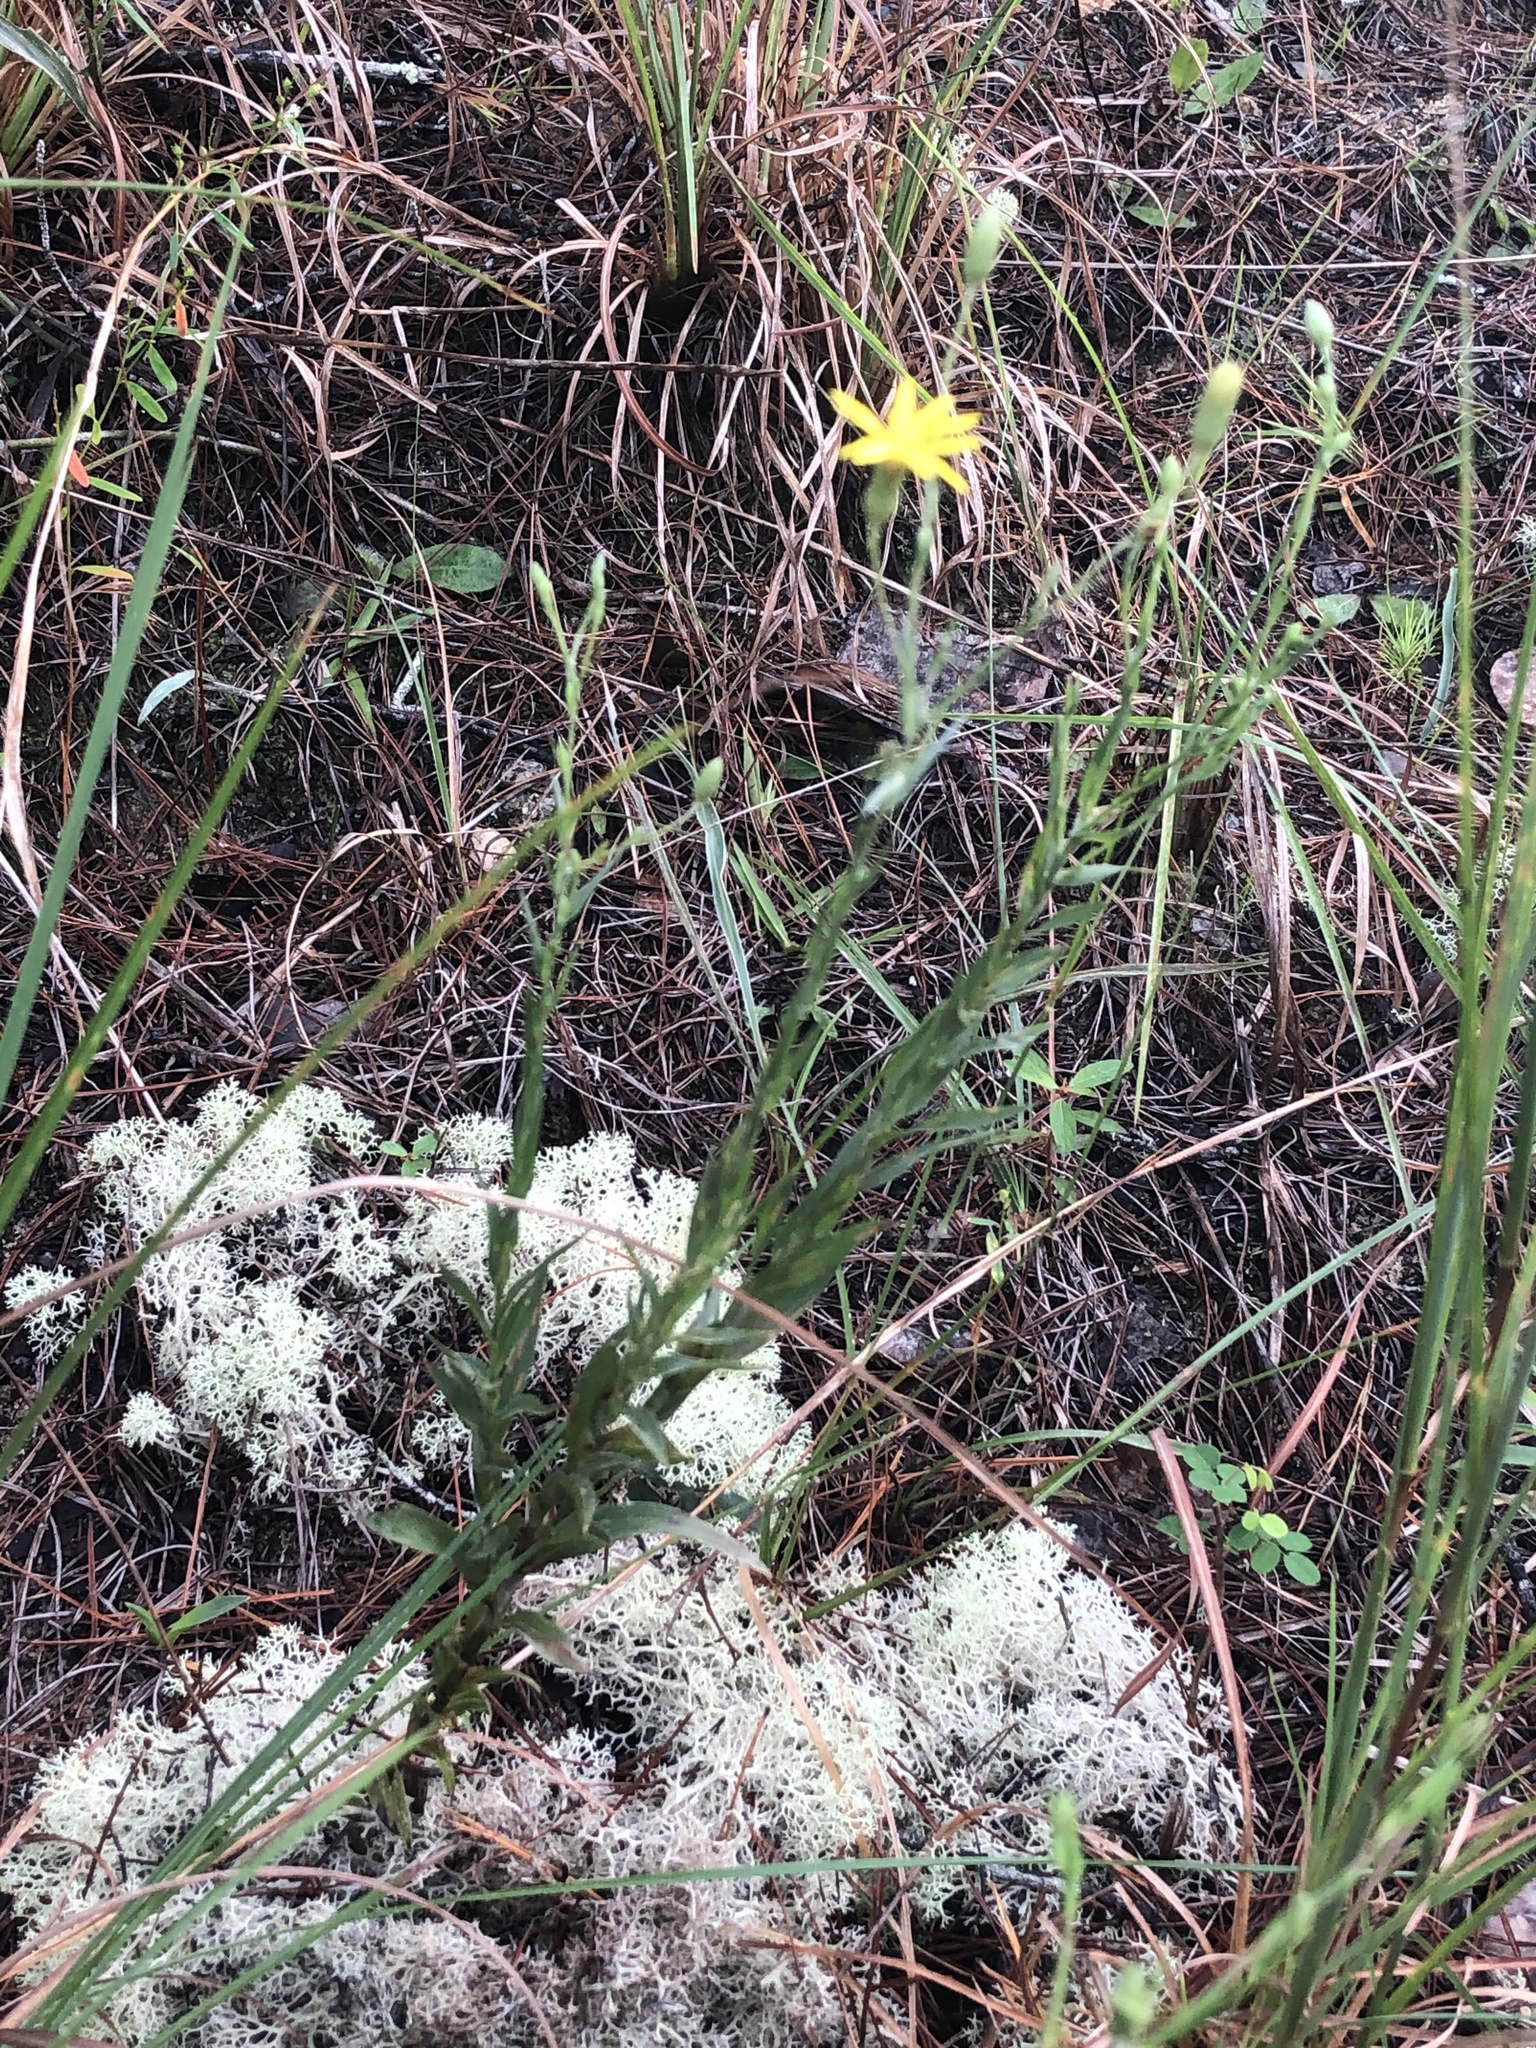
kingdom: Plantae
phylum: Tracheophyta
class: Magnoliopsida
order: Asterales
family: Asteraceae
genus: Pityopsis
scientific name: Pityopsis graminifolia
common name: Grass-leaf golden-aster
